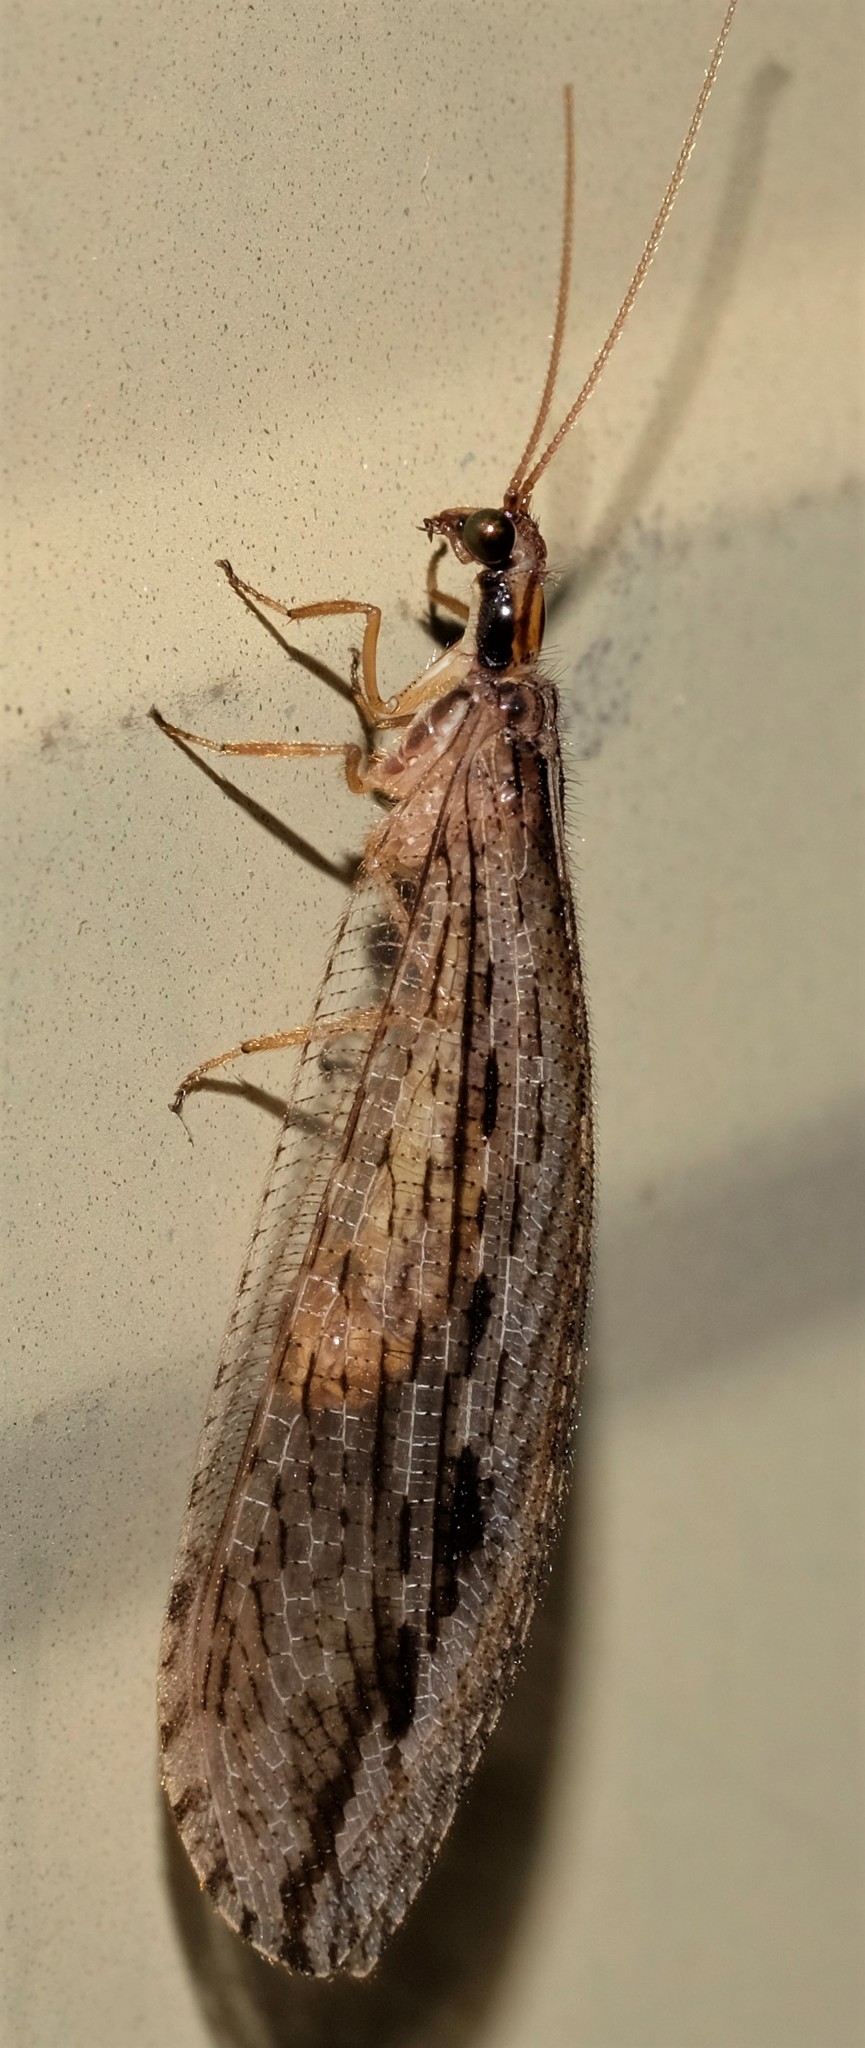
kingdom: Animalia
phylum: Arthropoda
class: Insecta
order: Neuroptera
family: Osmylidae
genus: Stenosmylus
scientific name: Stenosmylus stenopterus
